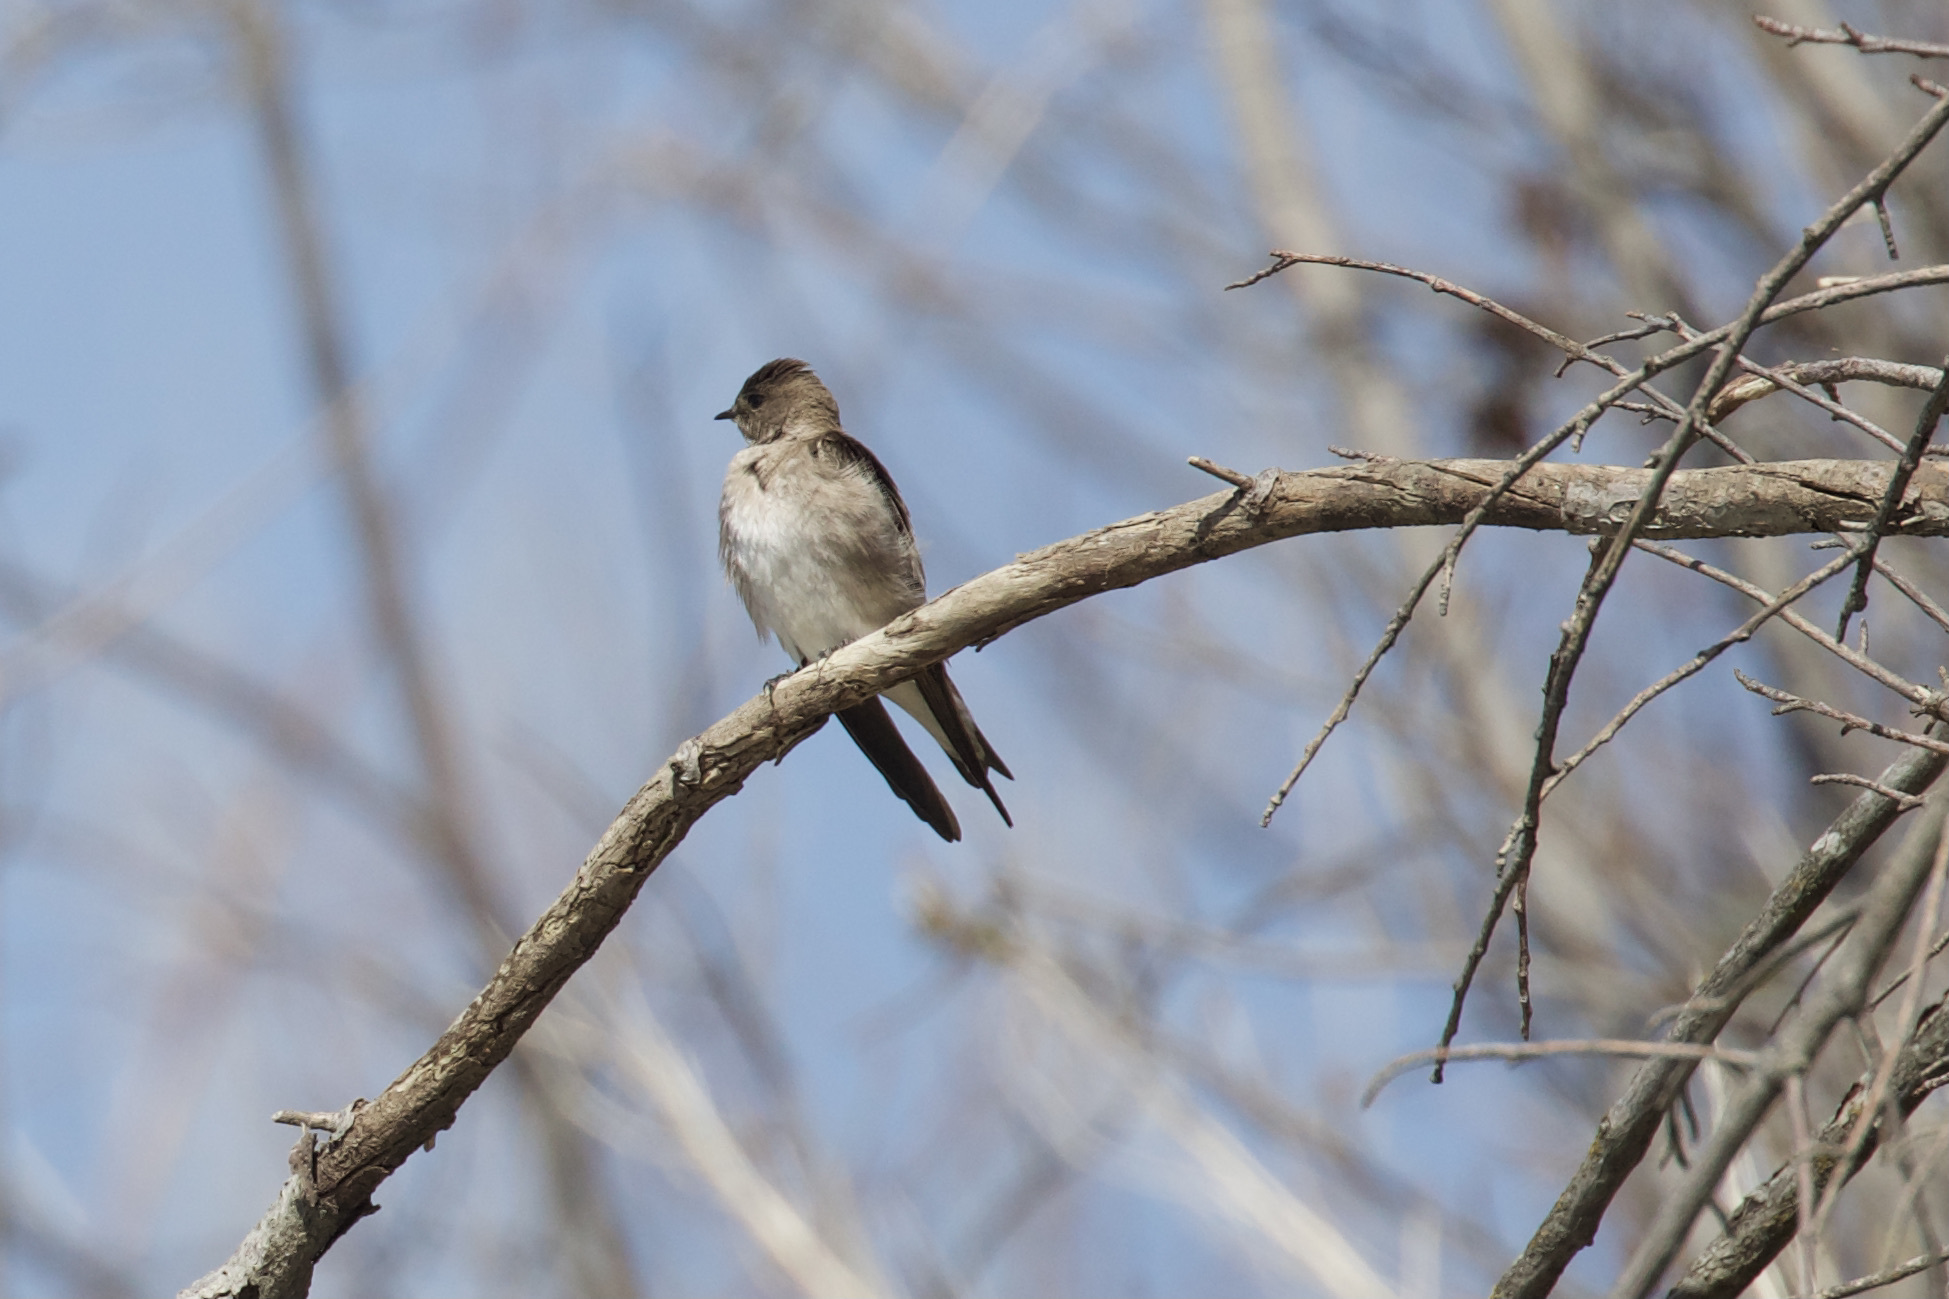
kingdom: Animalia
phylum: Chordata
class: Aves
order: Passeriformes
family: Hirundinidae
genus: Stelgidopteryx
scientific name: Stelgidopteryx serripennis
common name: Northern rough-winged swallow
